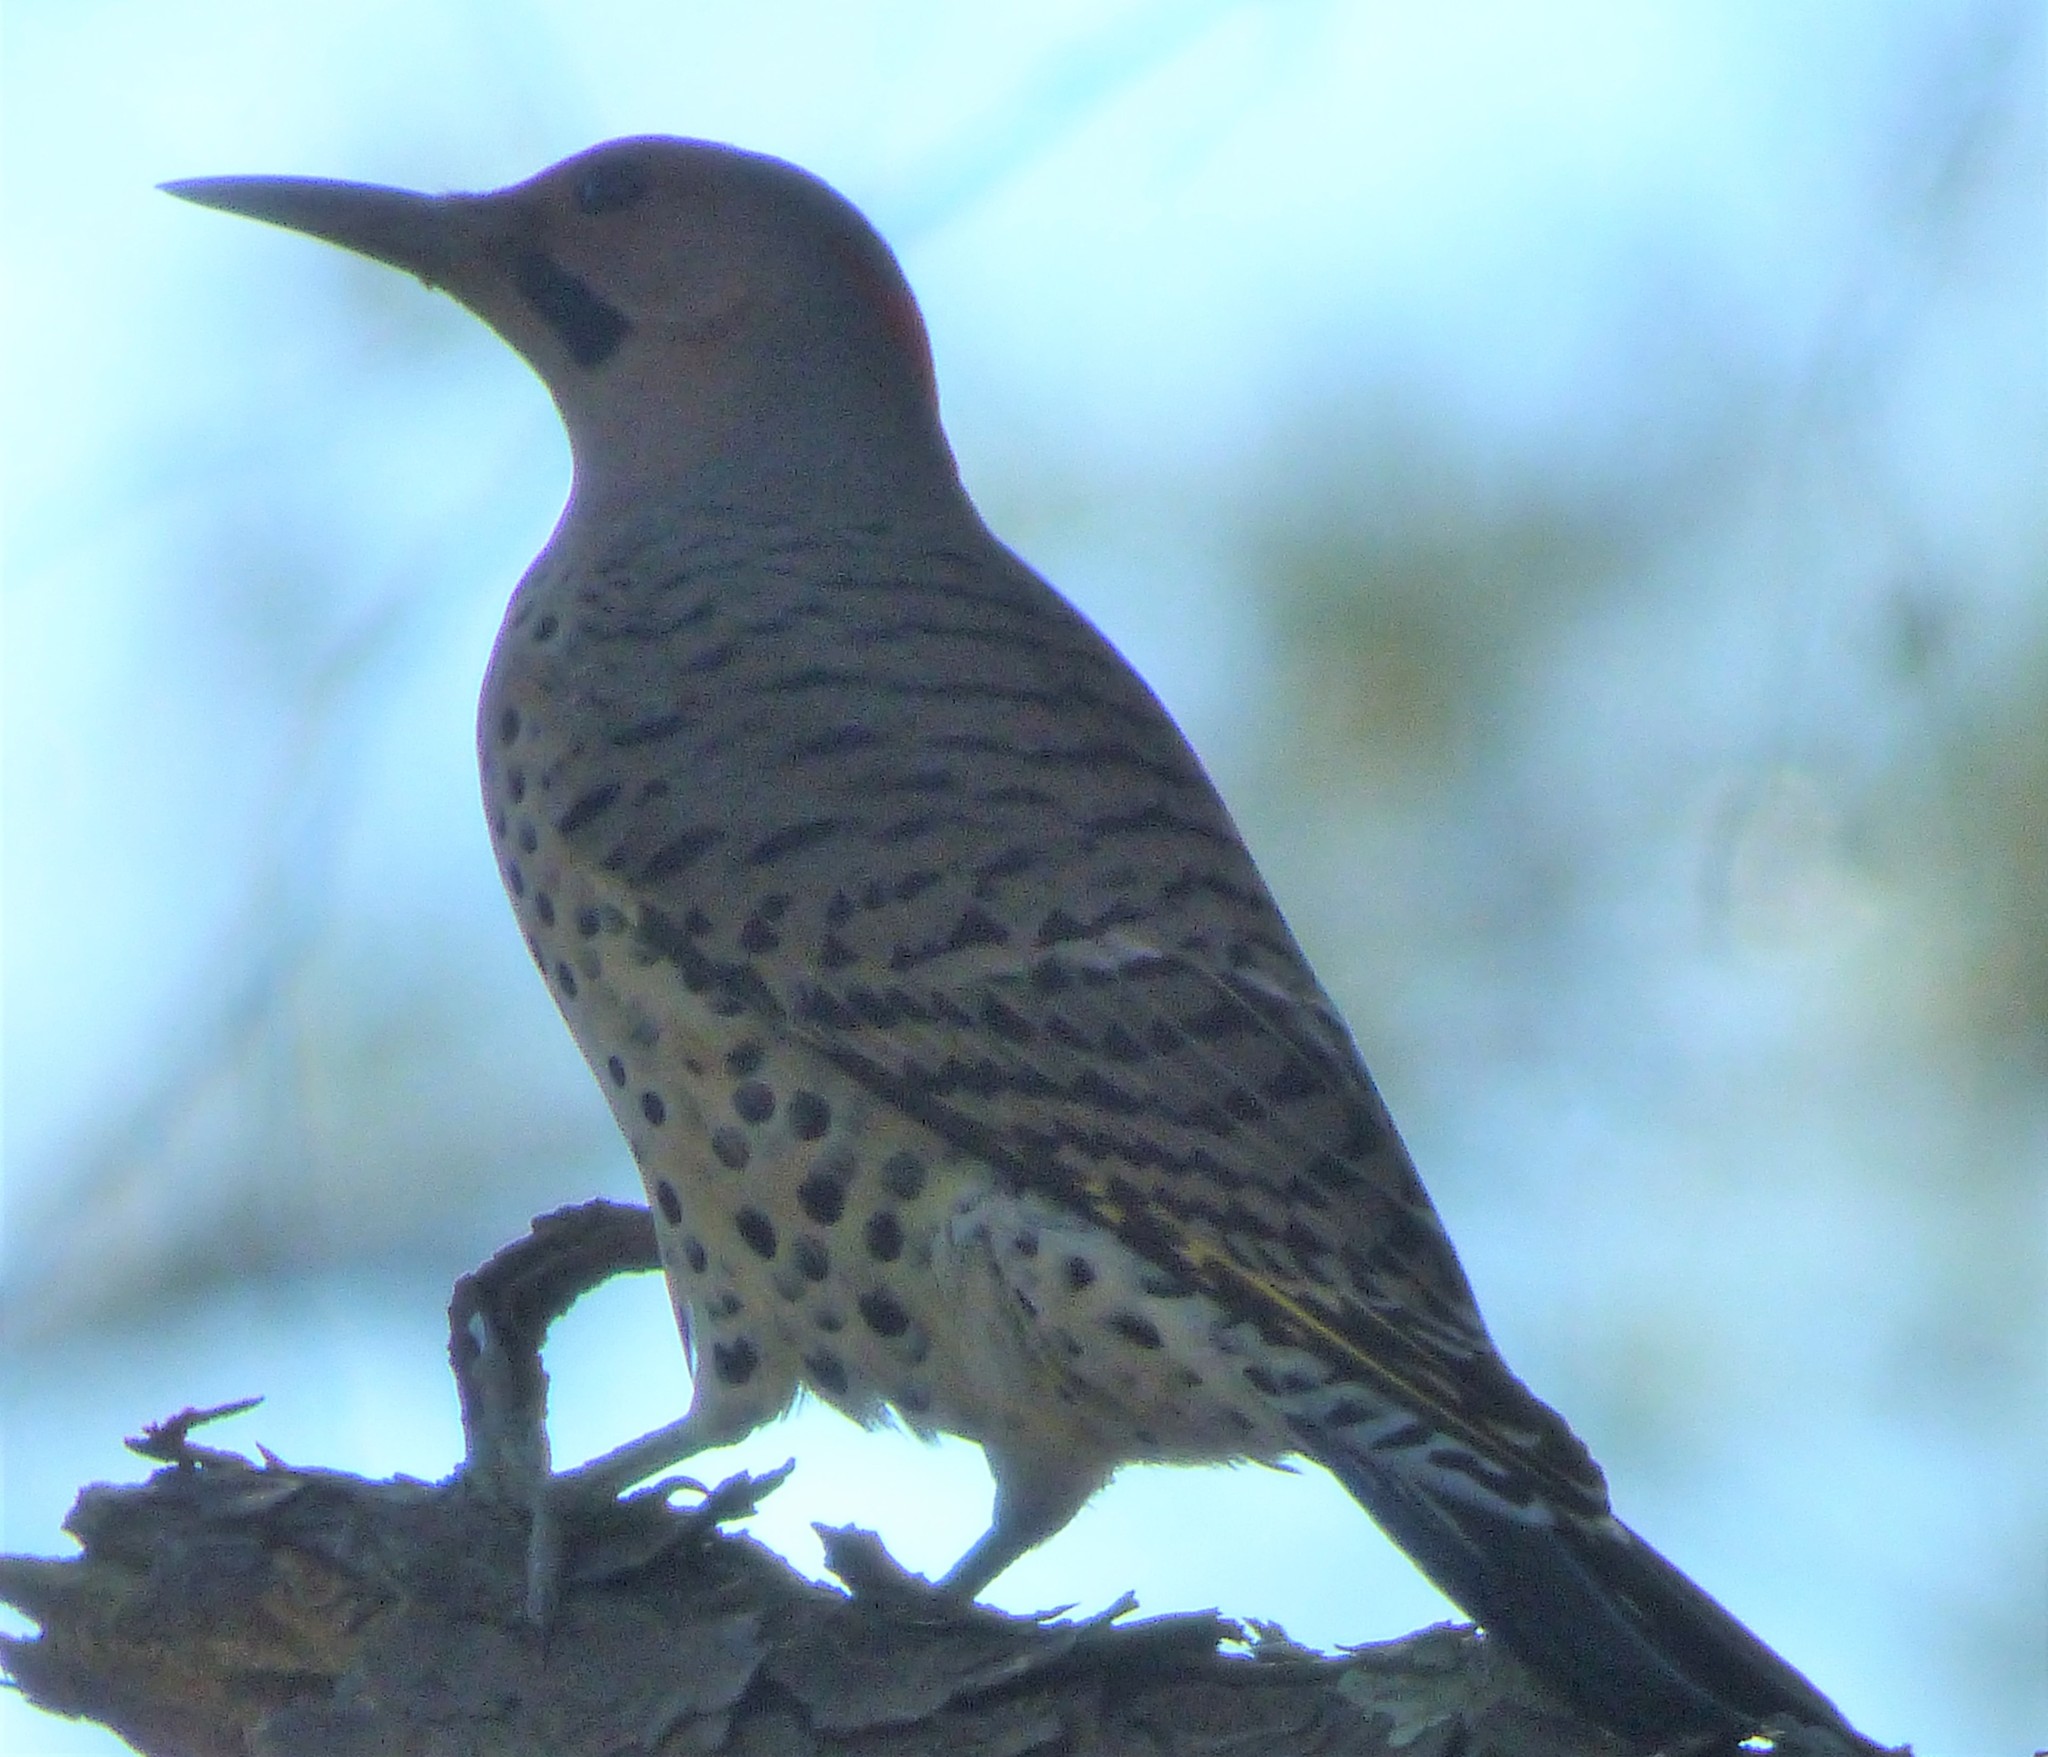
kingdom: Animalia
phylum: Chordata
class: Aves
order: Piciformes
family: Picidae
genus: Colaptes
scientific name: Colaptes auratus
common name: Northern flicker
